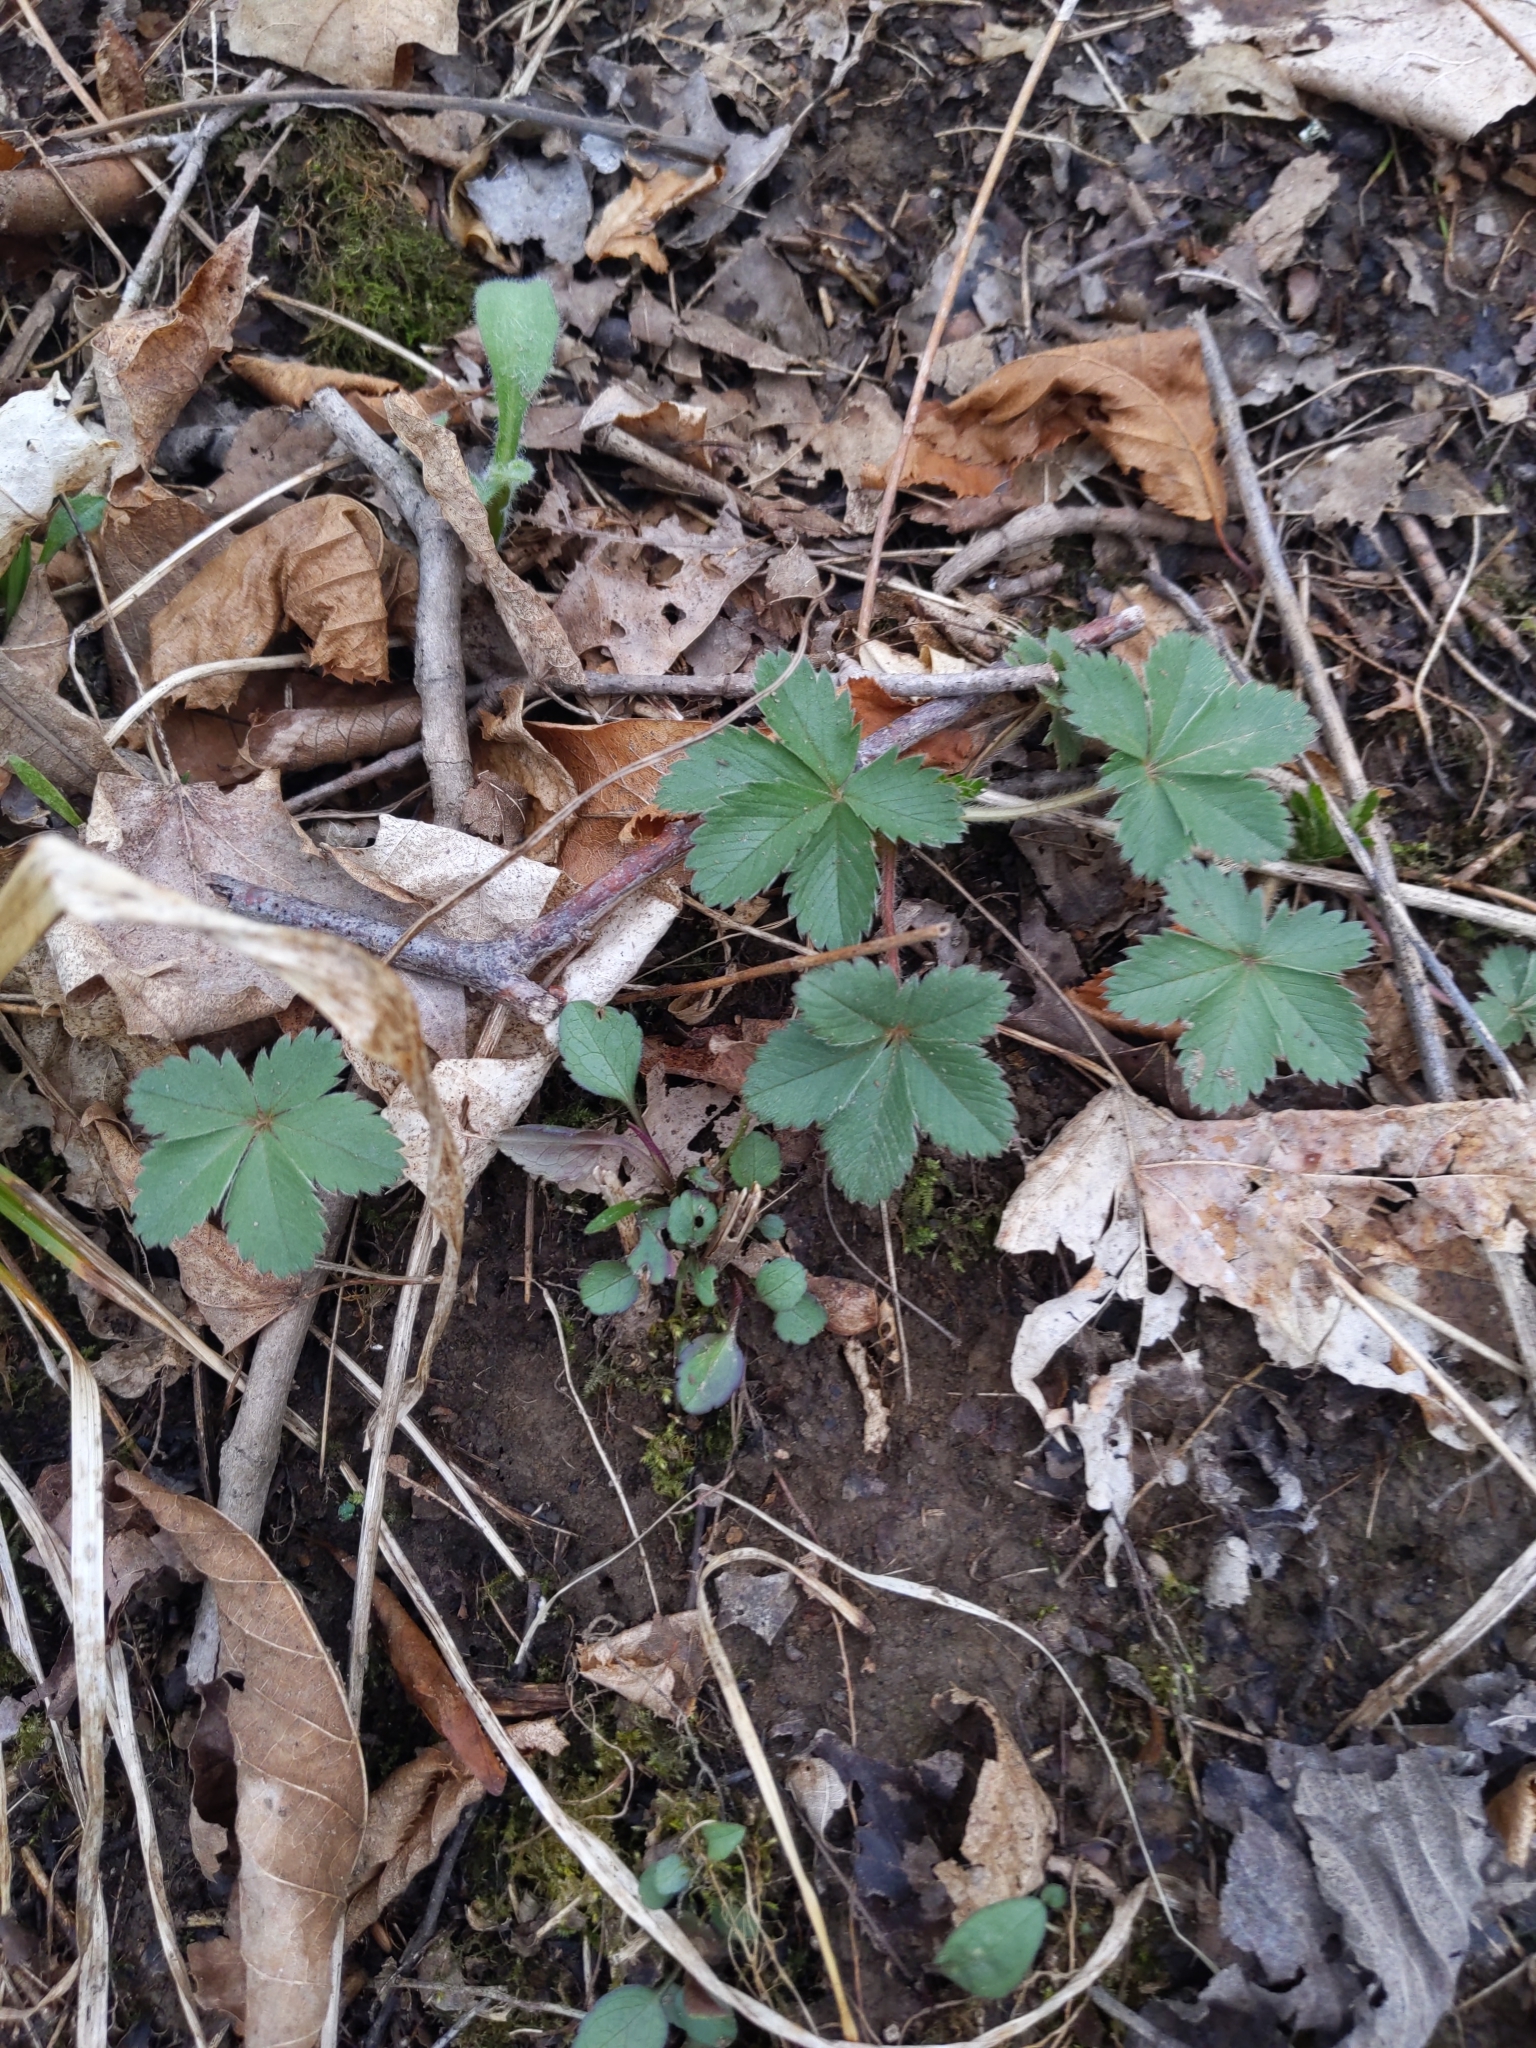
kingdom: Plantae
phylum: Tracheophyta
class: Magnoliopsida
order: Rosales
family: Rosaceae
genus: Potentilla
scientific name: Potentilla canadensis
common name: Canada cinquefoil
